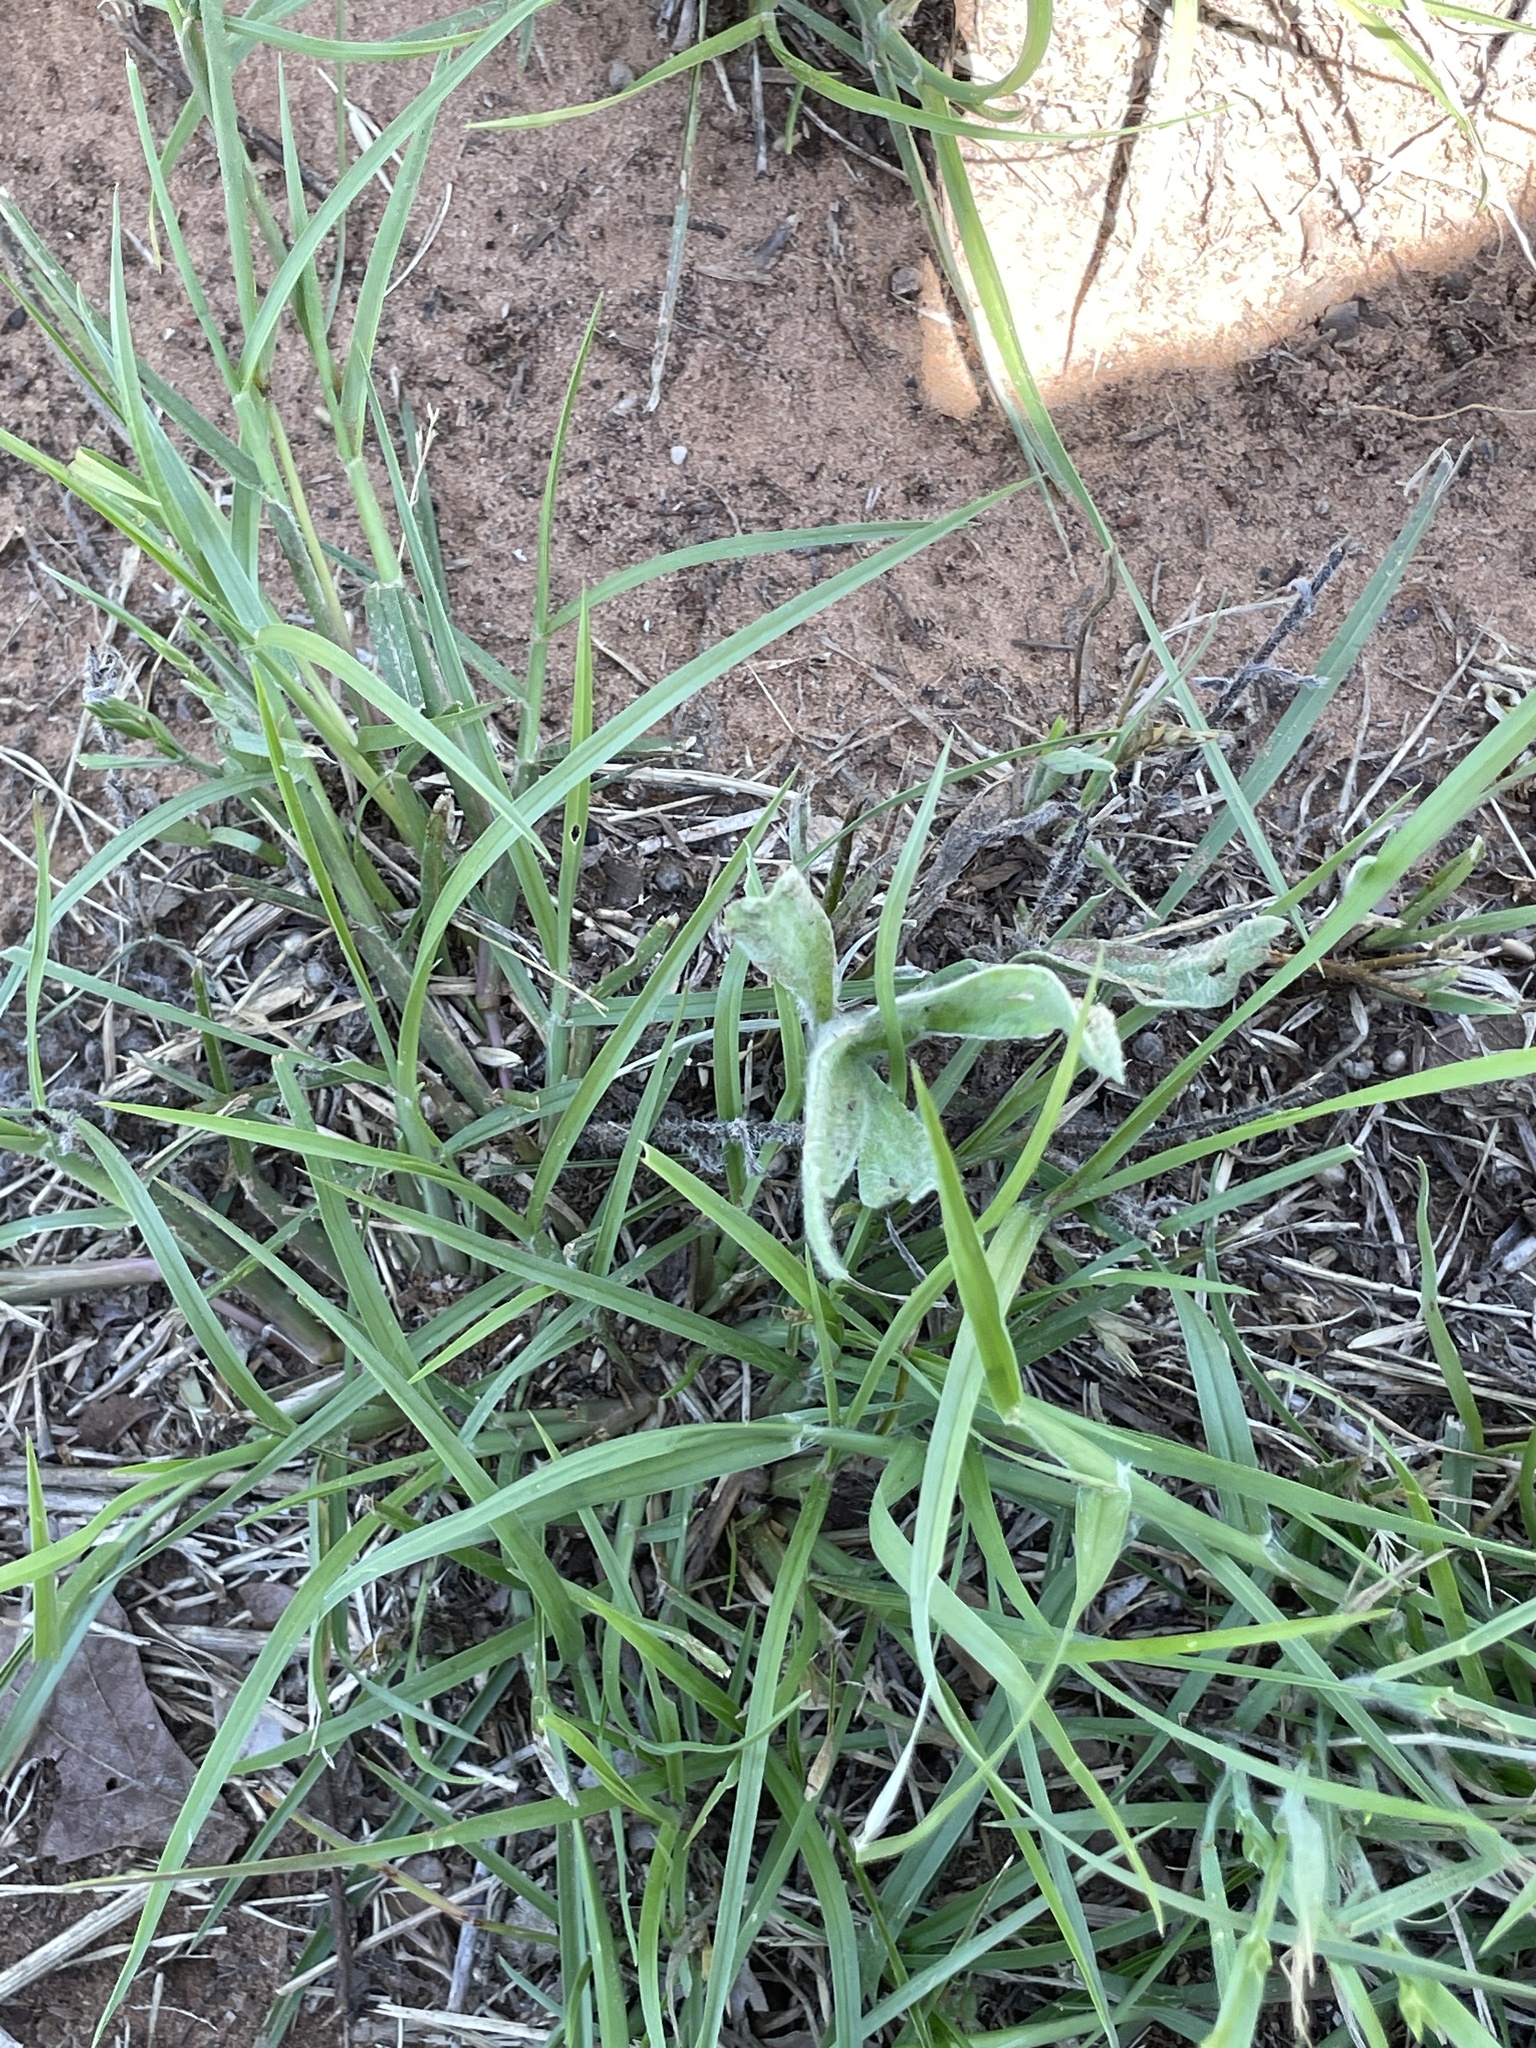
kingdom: Plantae
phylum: Tracheophyta
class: Liliopsida
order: Poales
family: Poaceae
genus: Cenchrus
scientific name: Cenchrus spinifex
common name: Coast sandbur
